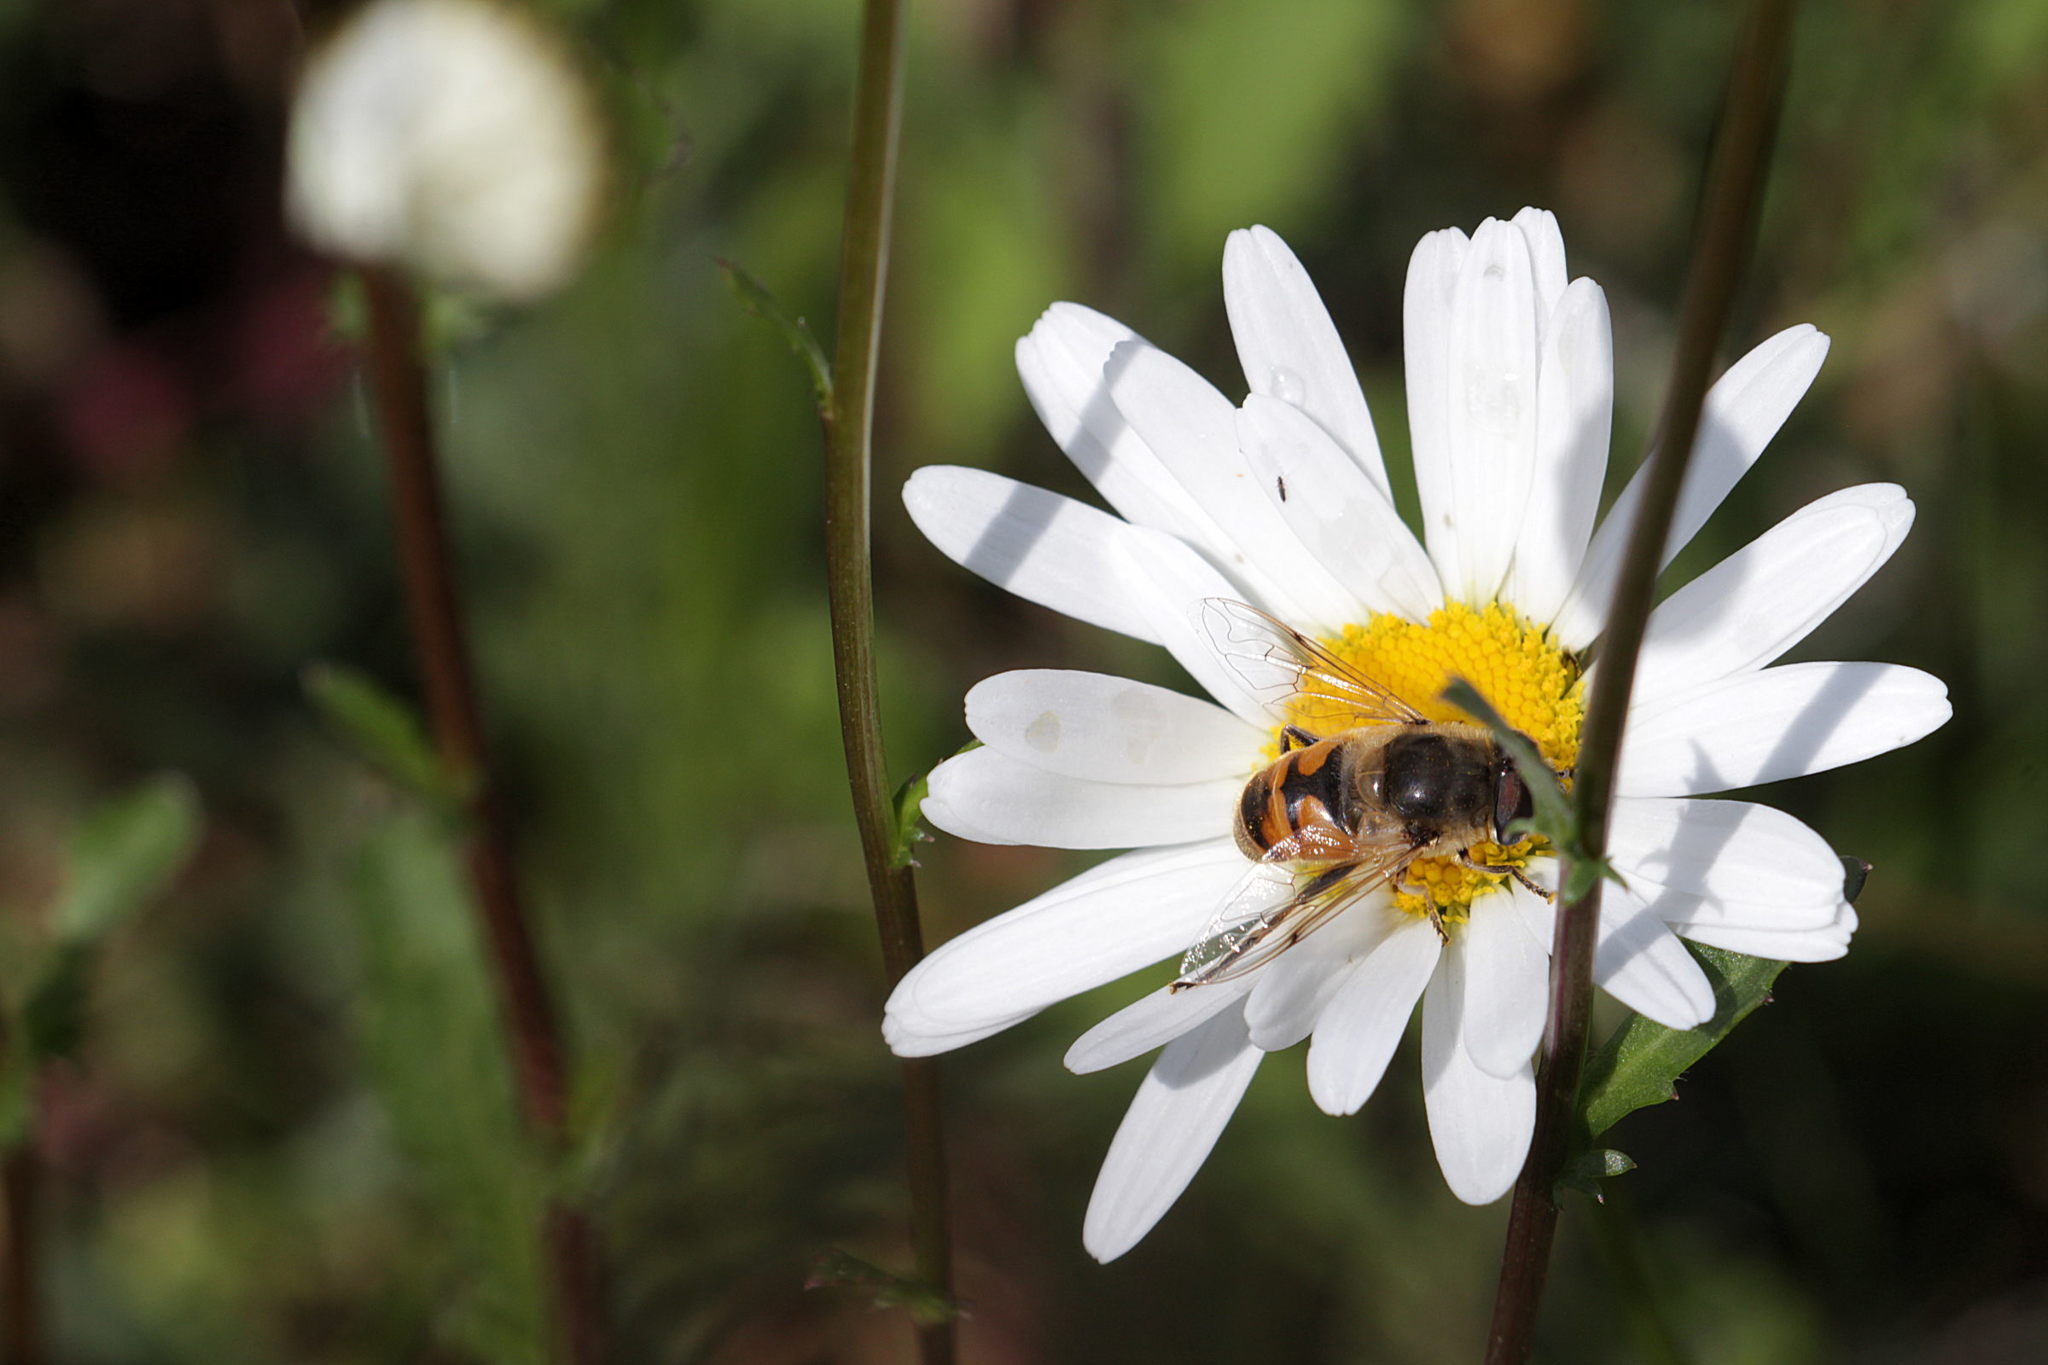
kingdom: Animalia
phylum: Arthropoda
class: Insecta
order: Diptera
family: Syrphidae
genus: Eristalis
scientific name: Eristalis tenax
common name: Drone fly
